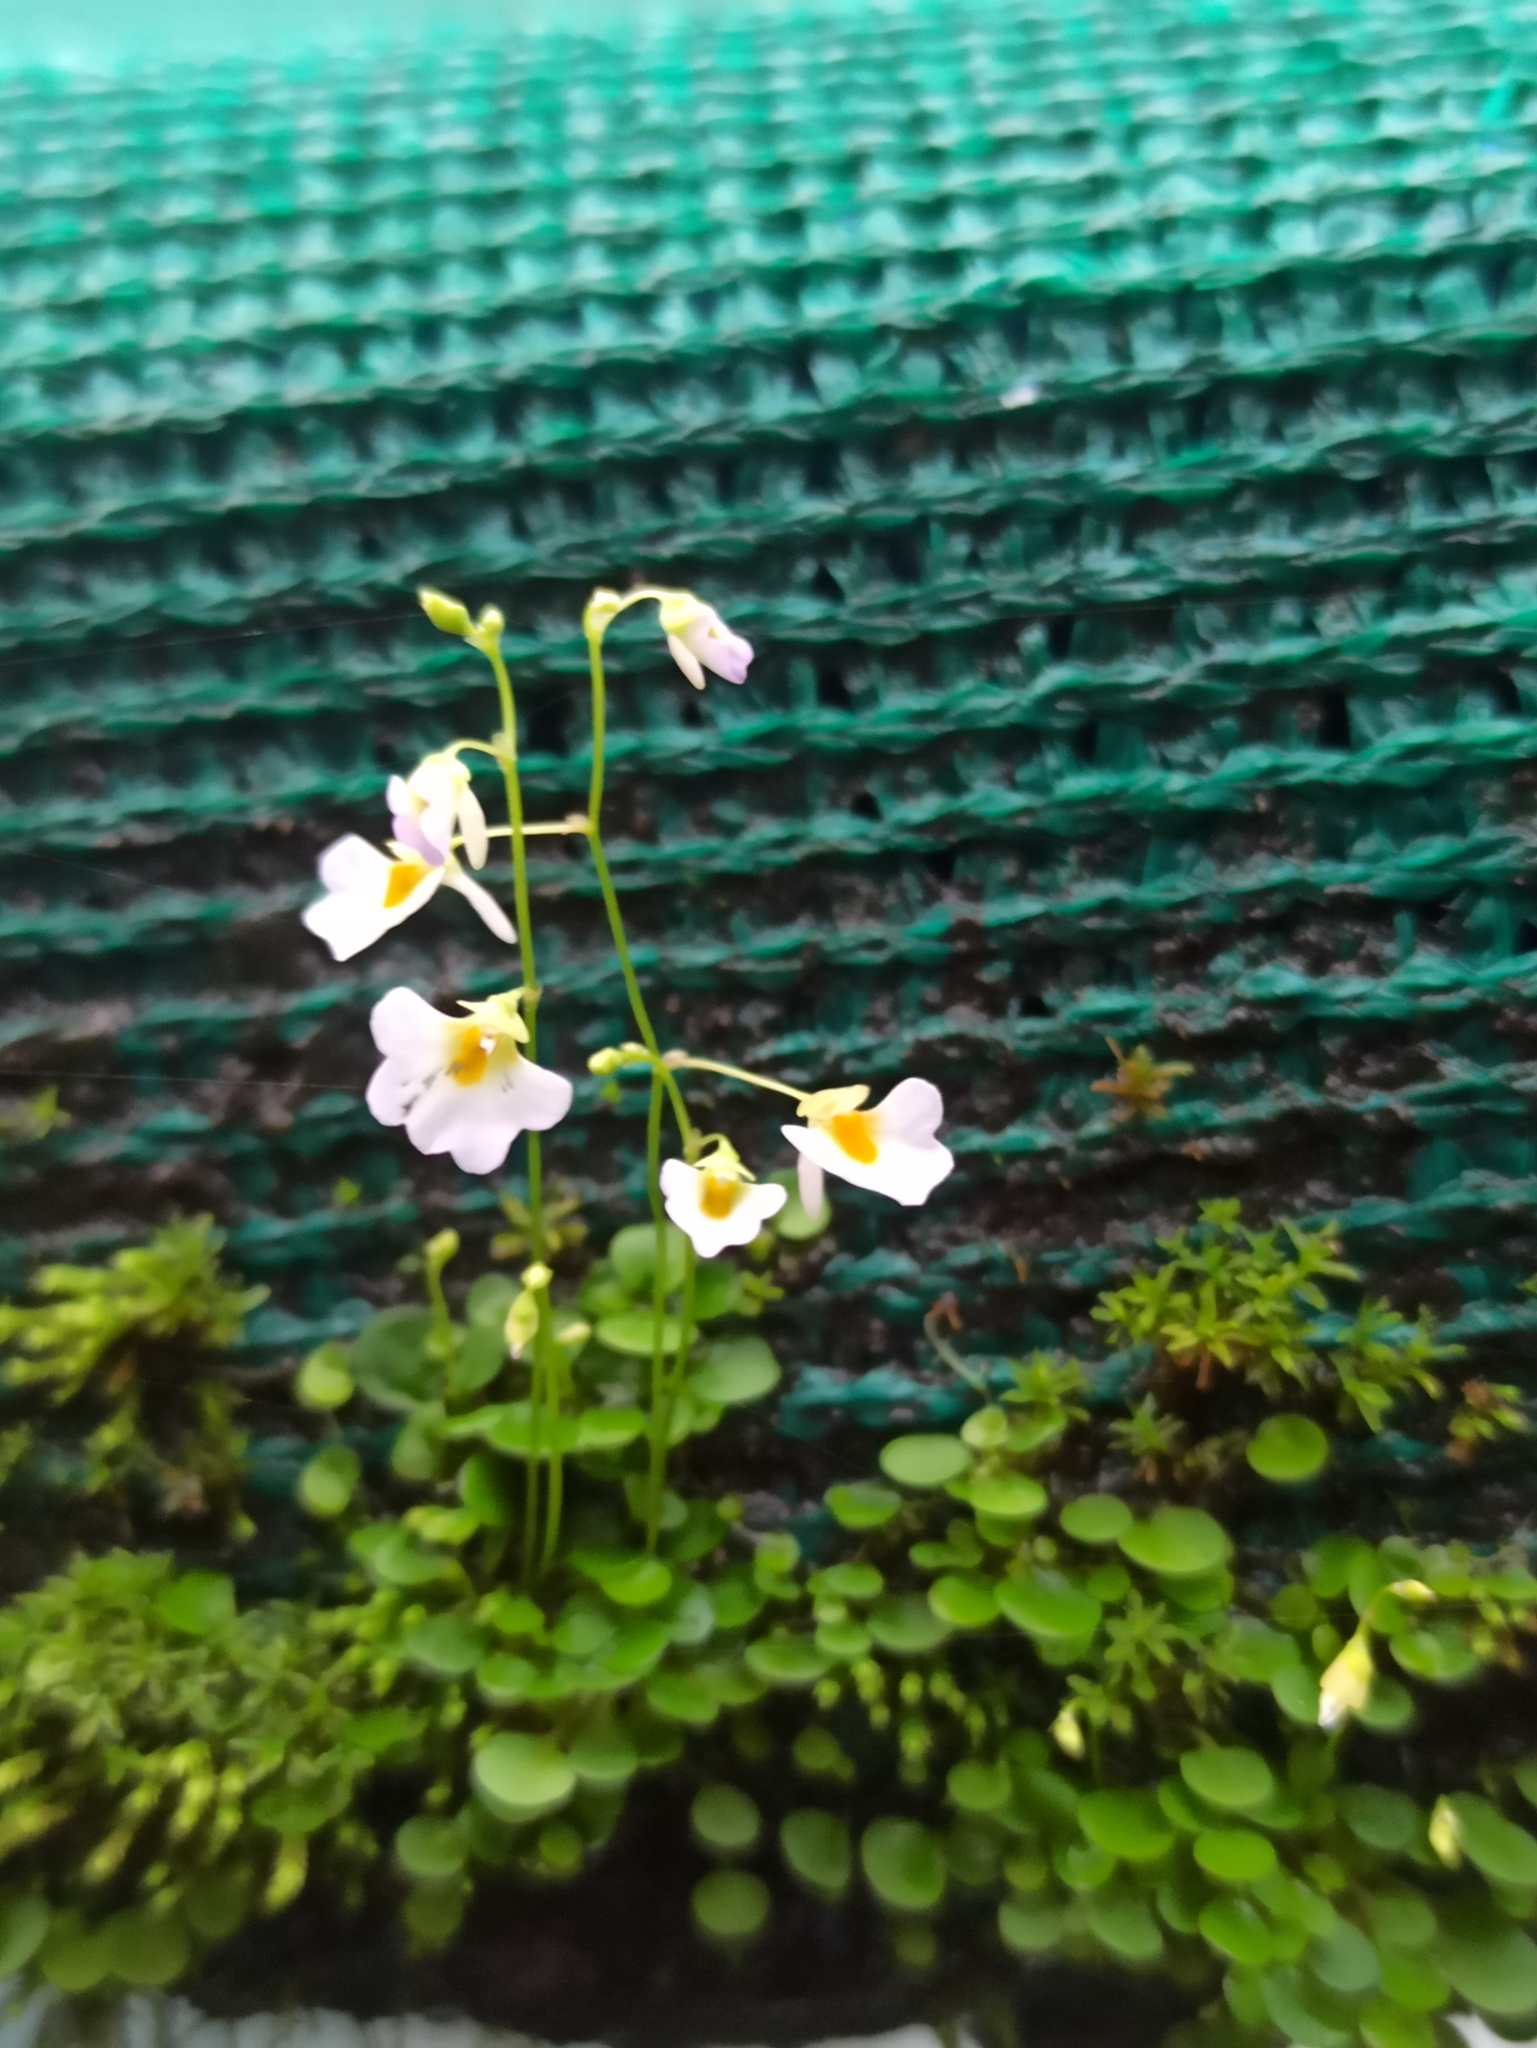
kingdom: Plantae
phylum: Tracheophyta
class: Magnoliopsida
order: Lamiales
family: Lentibulariaceae
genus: Utricularia
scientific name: Utricularia striatula
